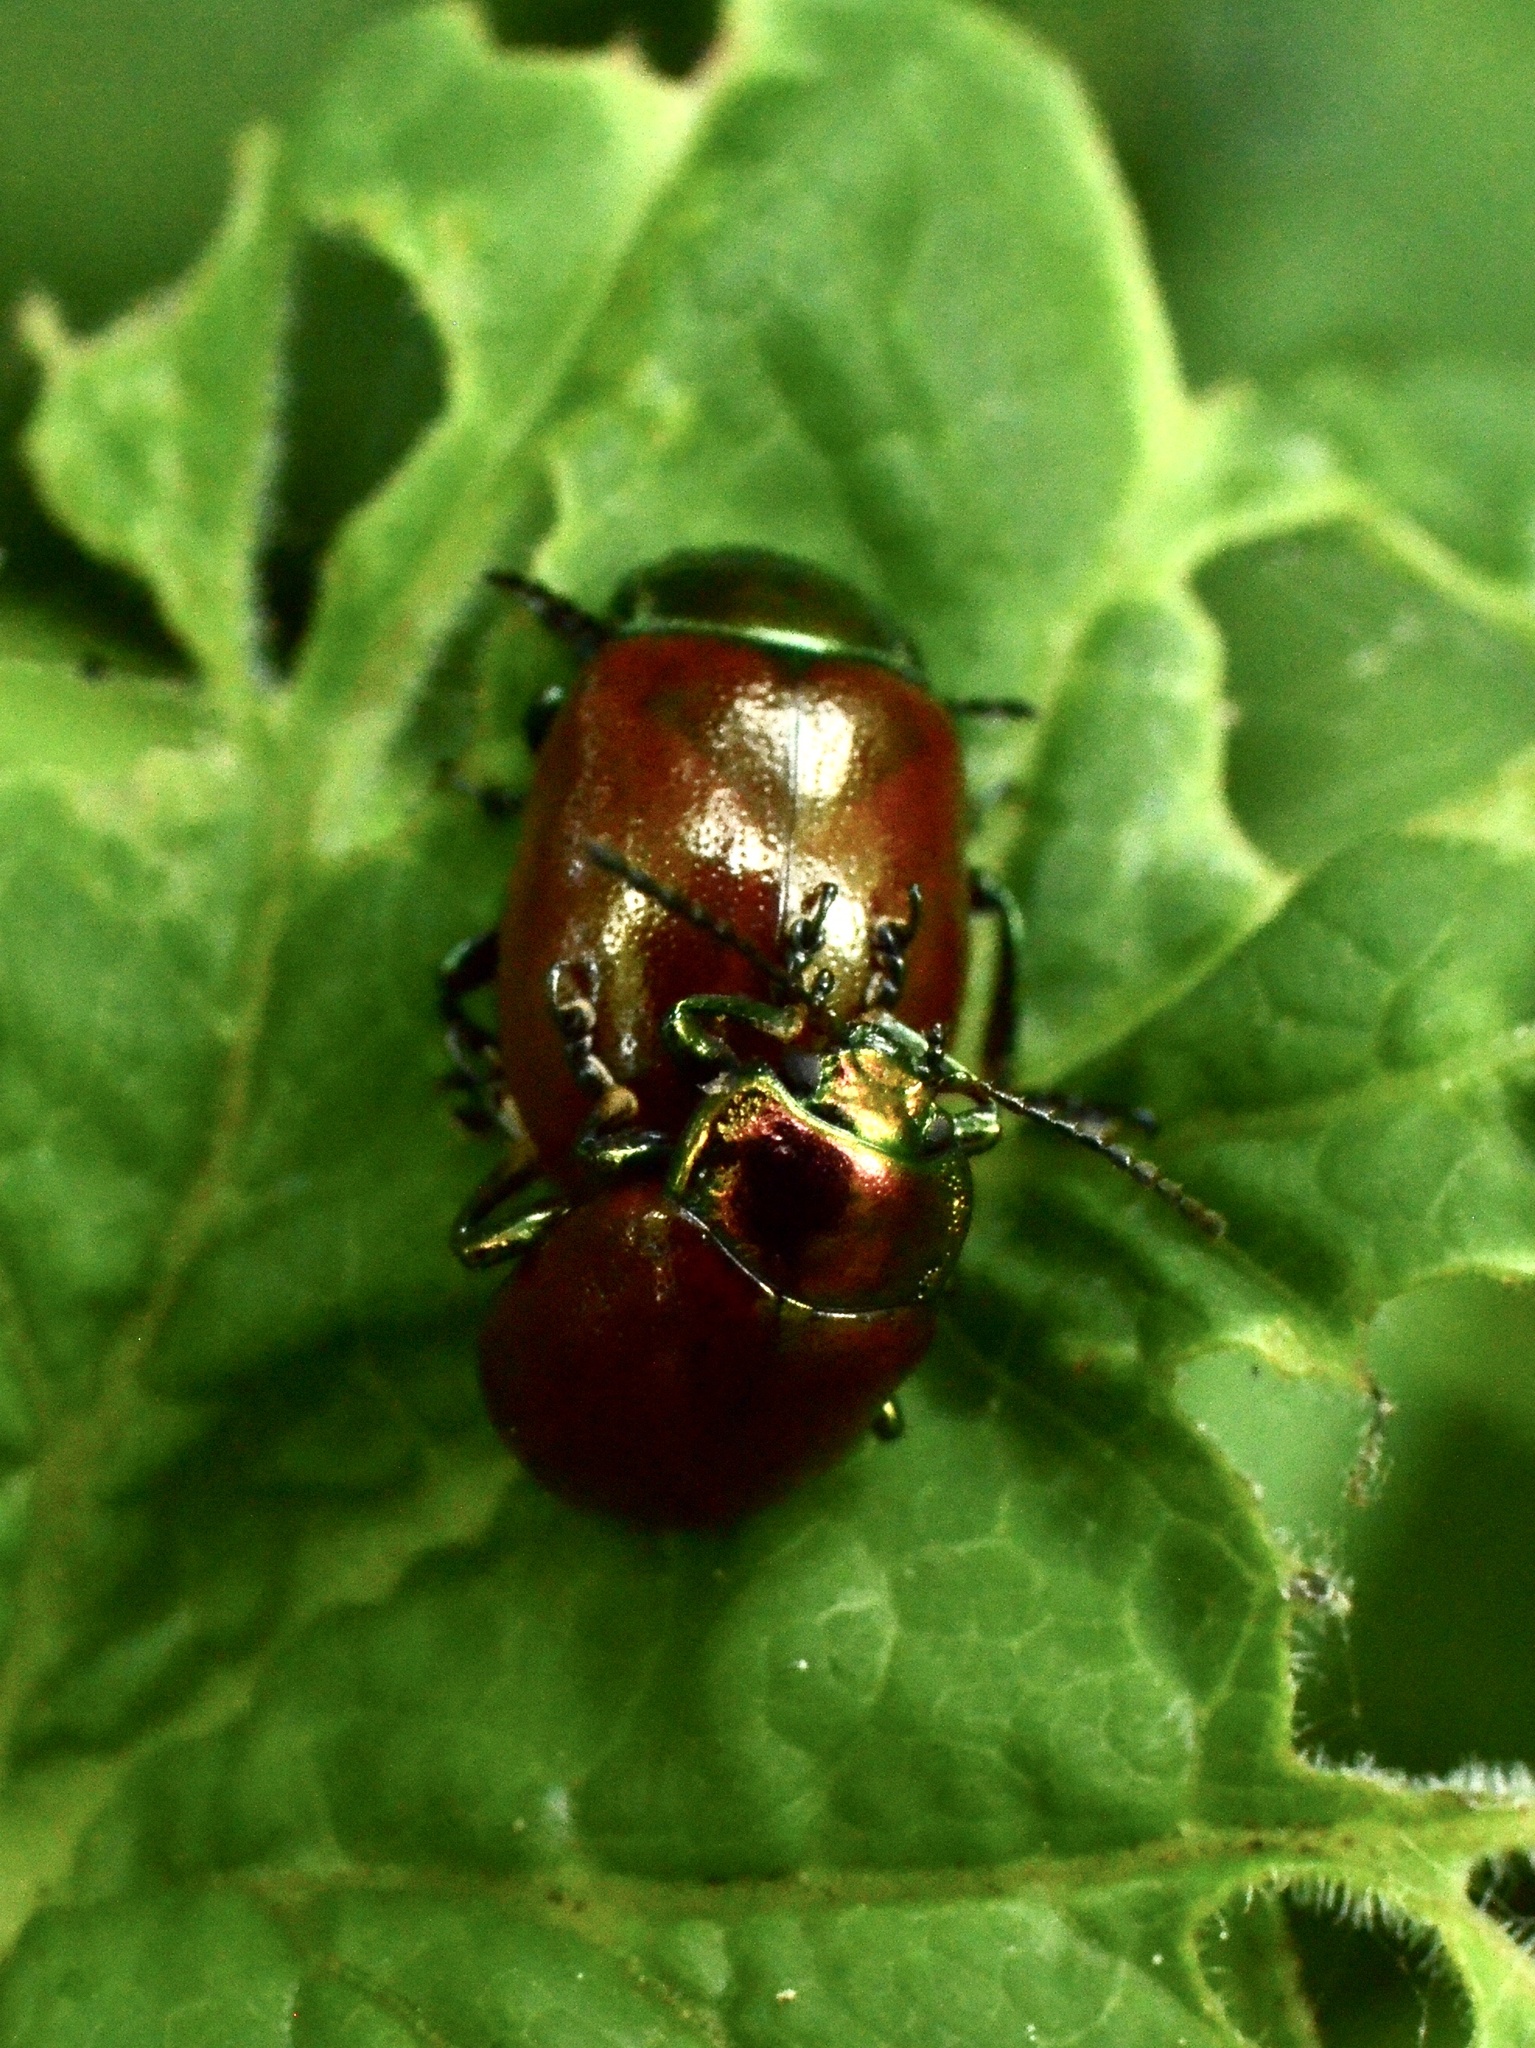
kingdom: Animalia
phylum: Arthropoda
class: Insecta
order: Coleoptera
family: Chrysomelidae
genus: Chrysomela
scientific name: Chrysomela polita
